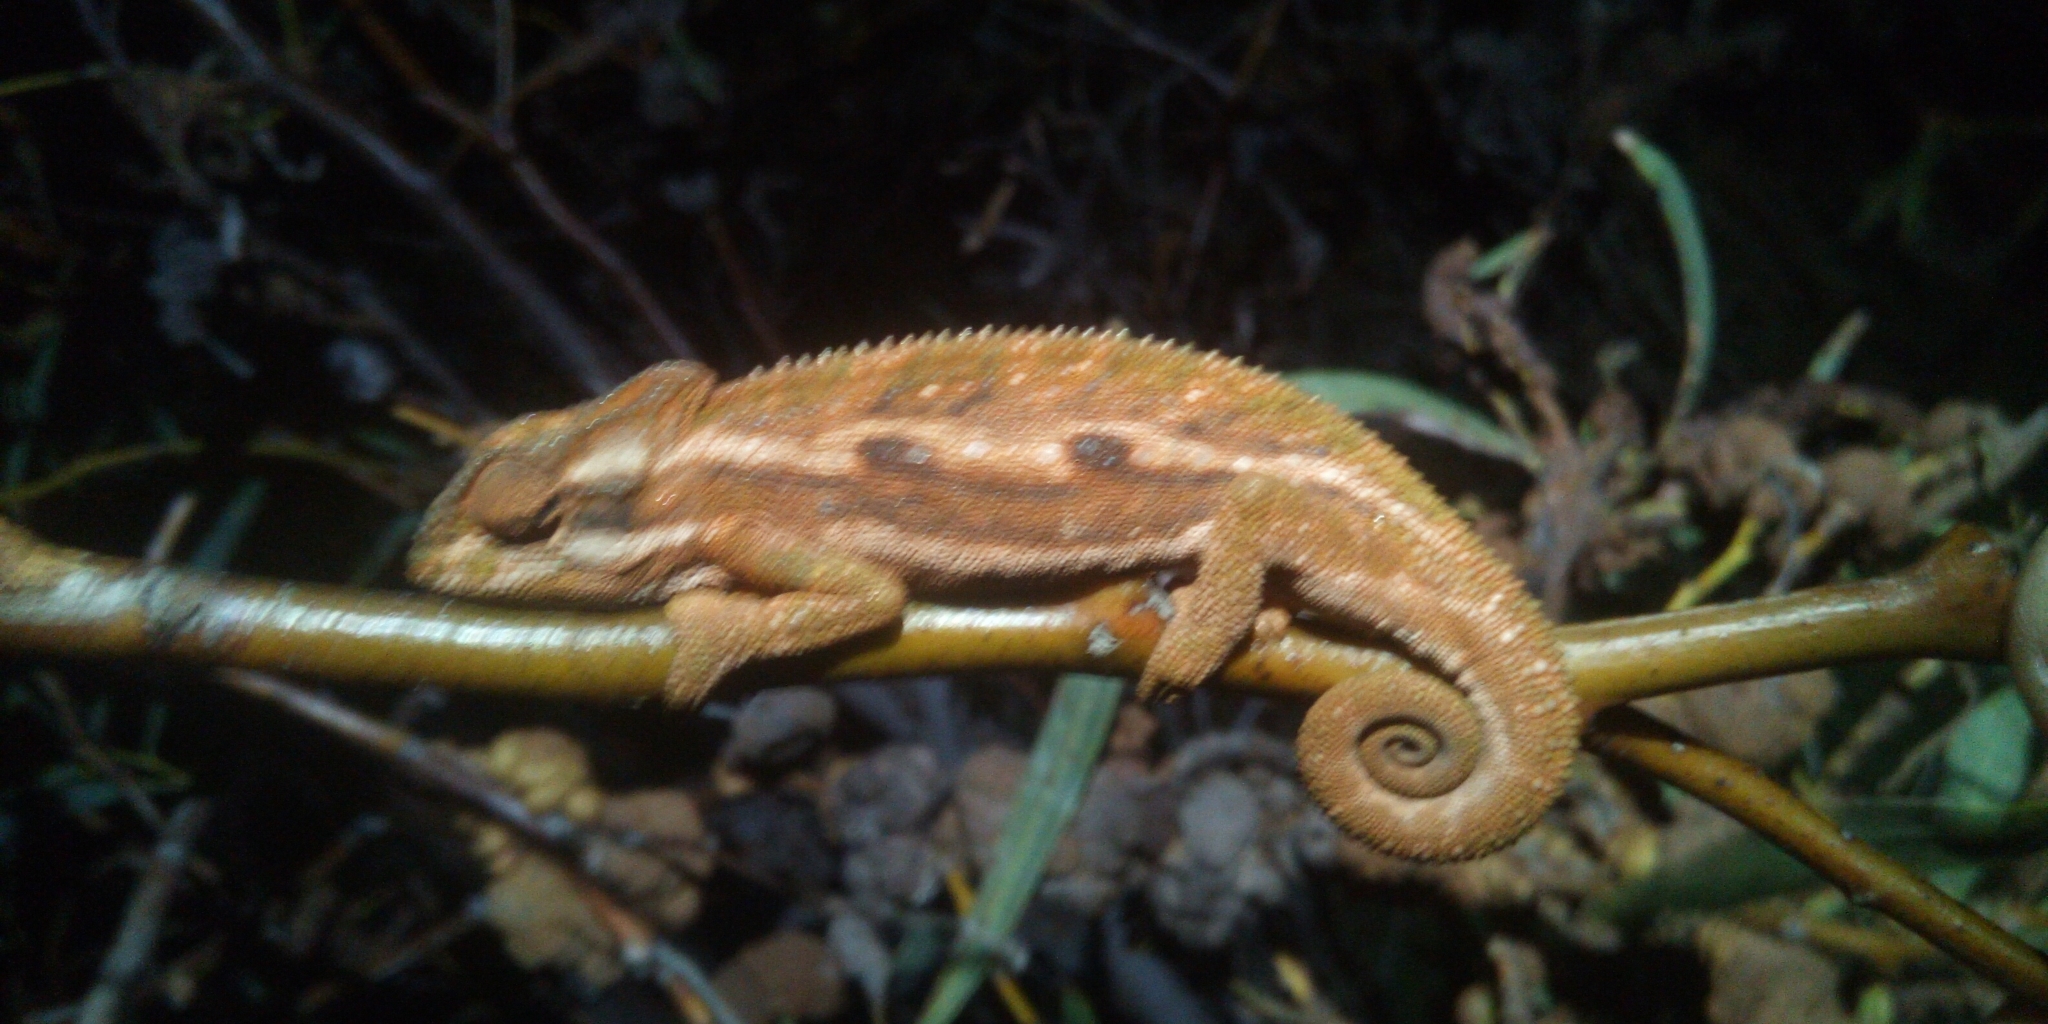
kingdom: Animalia
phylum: Chordata
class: Squamata
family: Chamaeleonidae
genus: Bradypodion
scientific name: Bradypodion pumilum
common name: Cape dwarf chameleon
